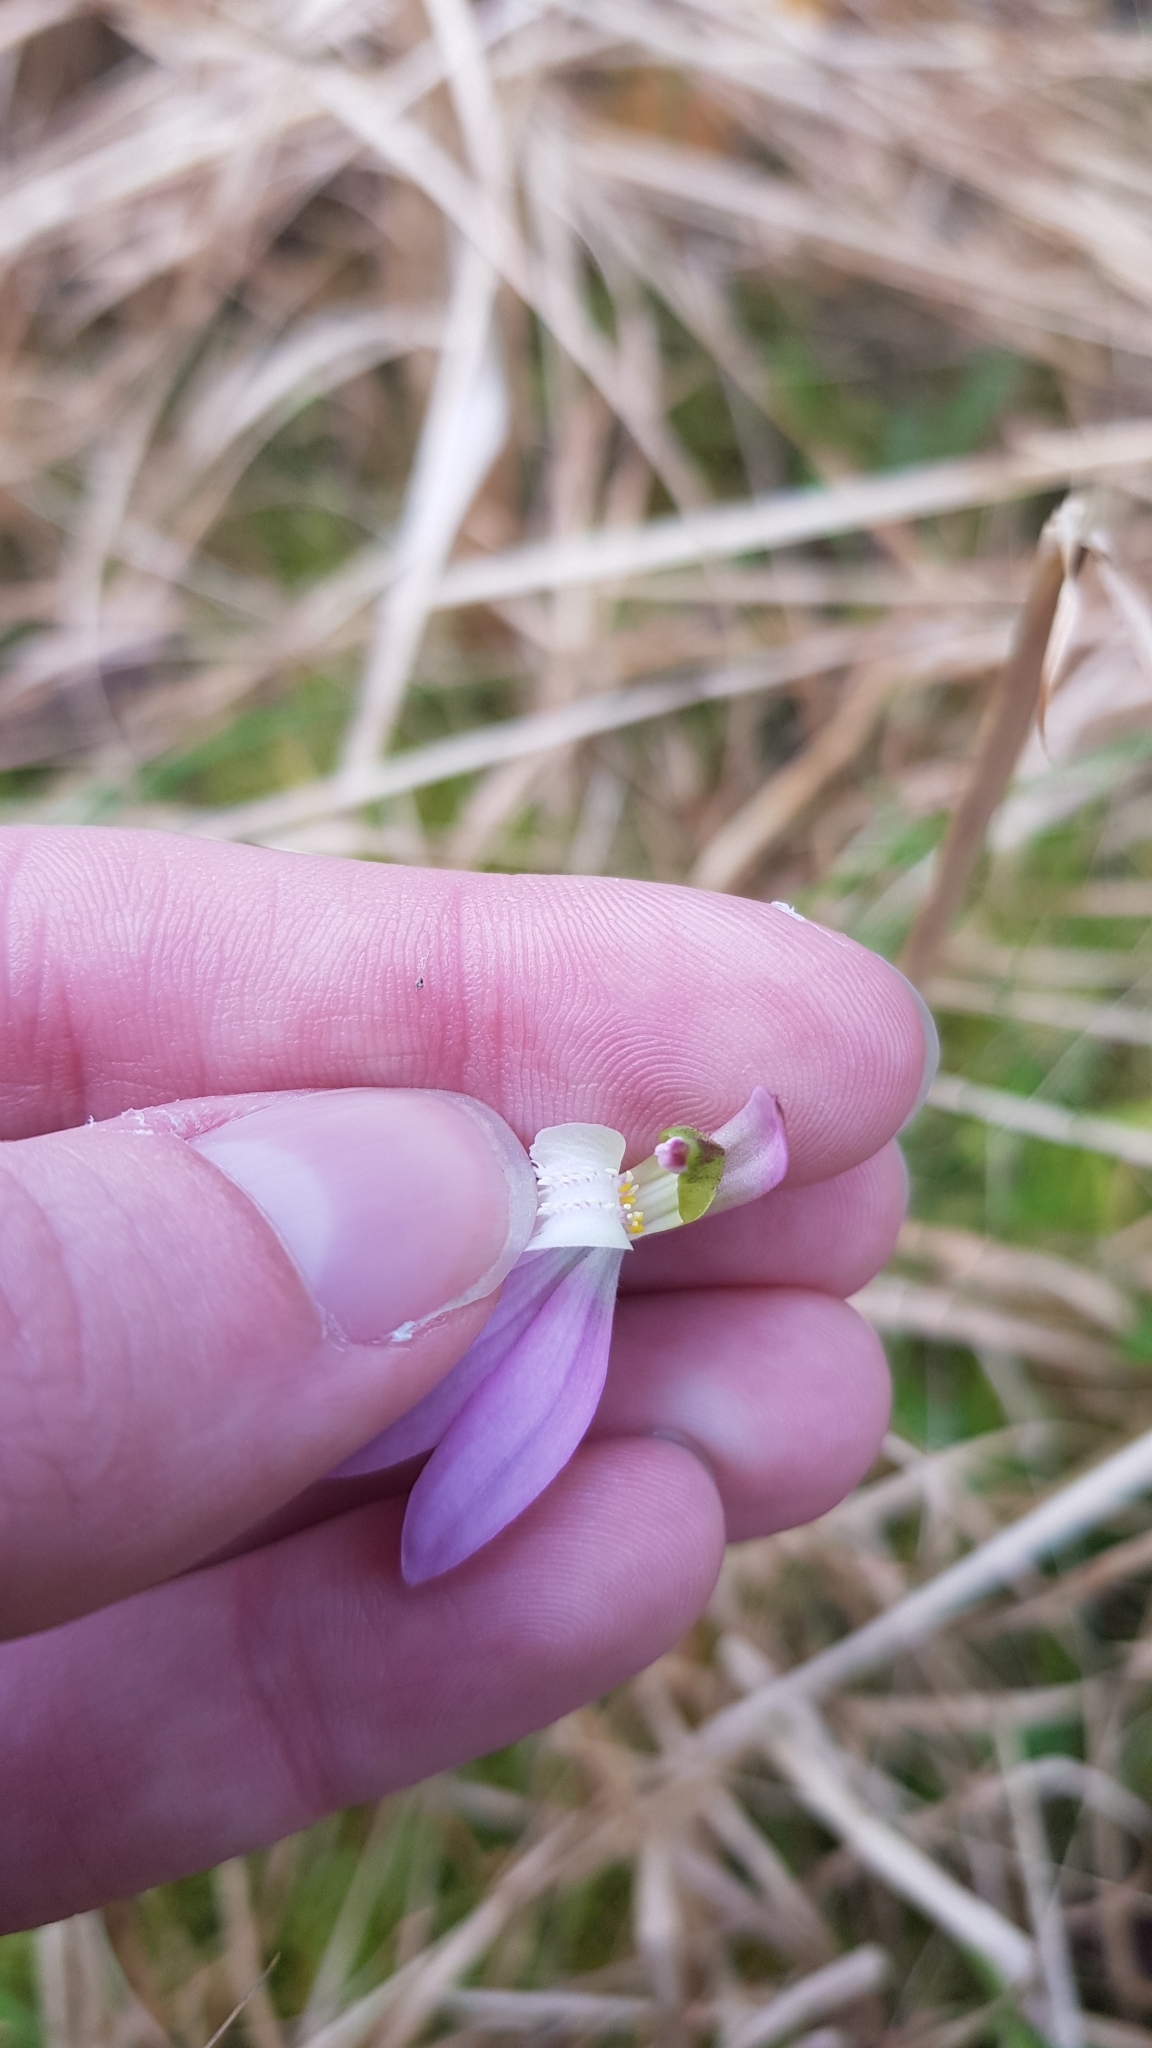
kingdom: Plantae
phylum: Tracheophyta
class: Liliopsida
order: Asparagales
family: Orchidaceae
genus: Caladenia
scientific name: Caladenia catenata
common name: White caladenia
